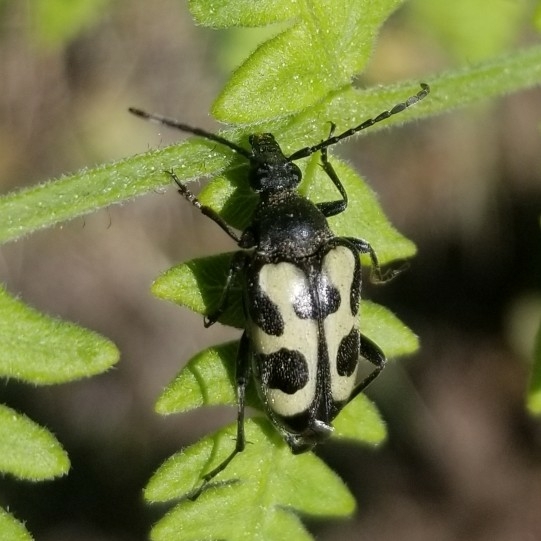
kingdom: Animalia
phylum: Arthropoda
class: Insecta
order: Coleoptera
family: Cerambycidae
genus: Judolia
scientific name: Judolia instabilis
